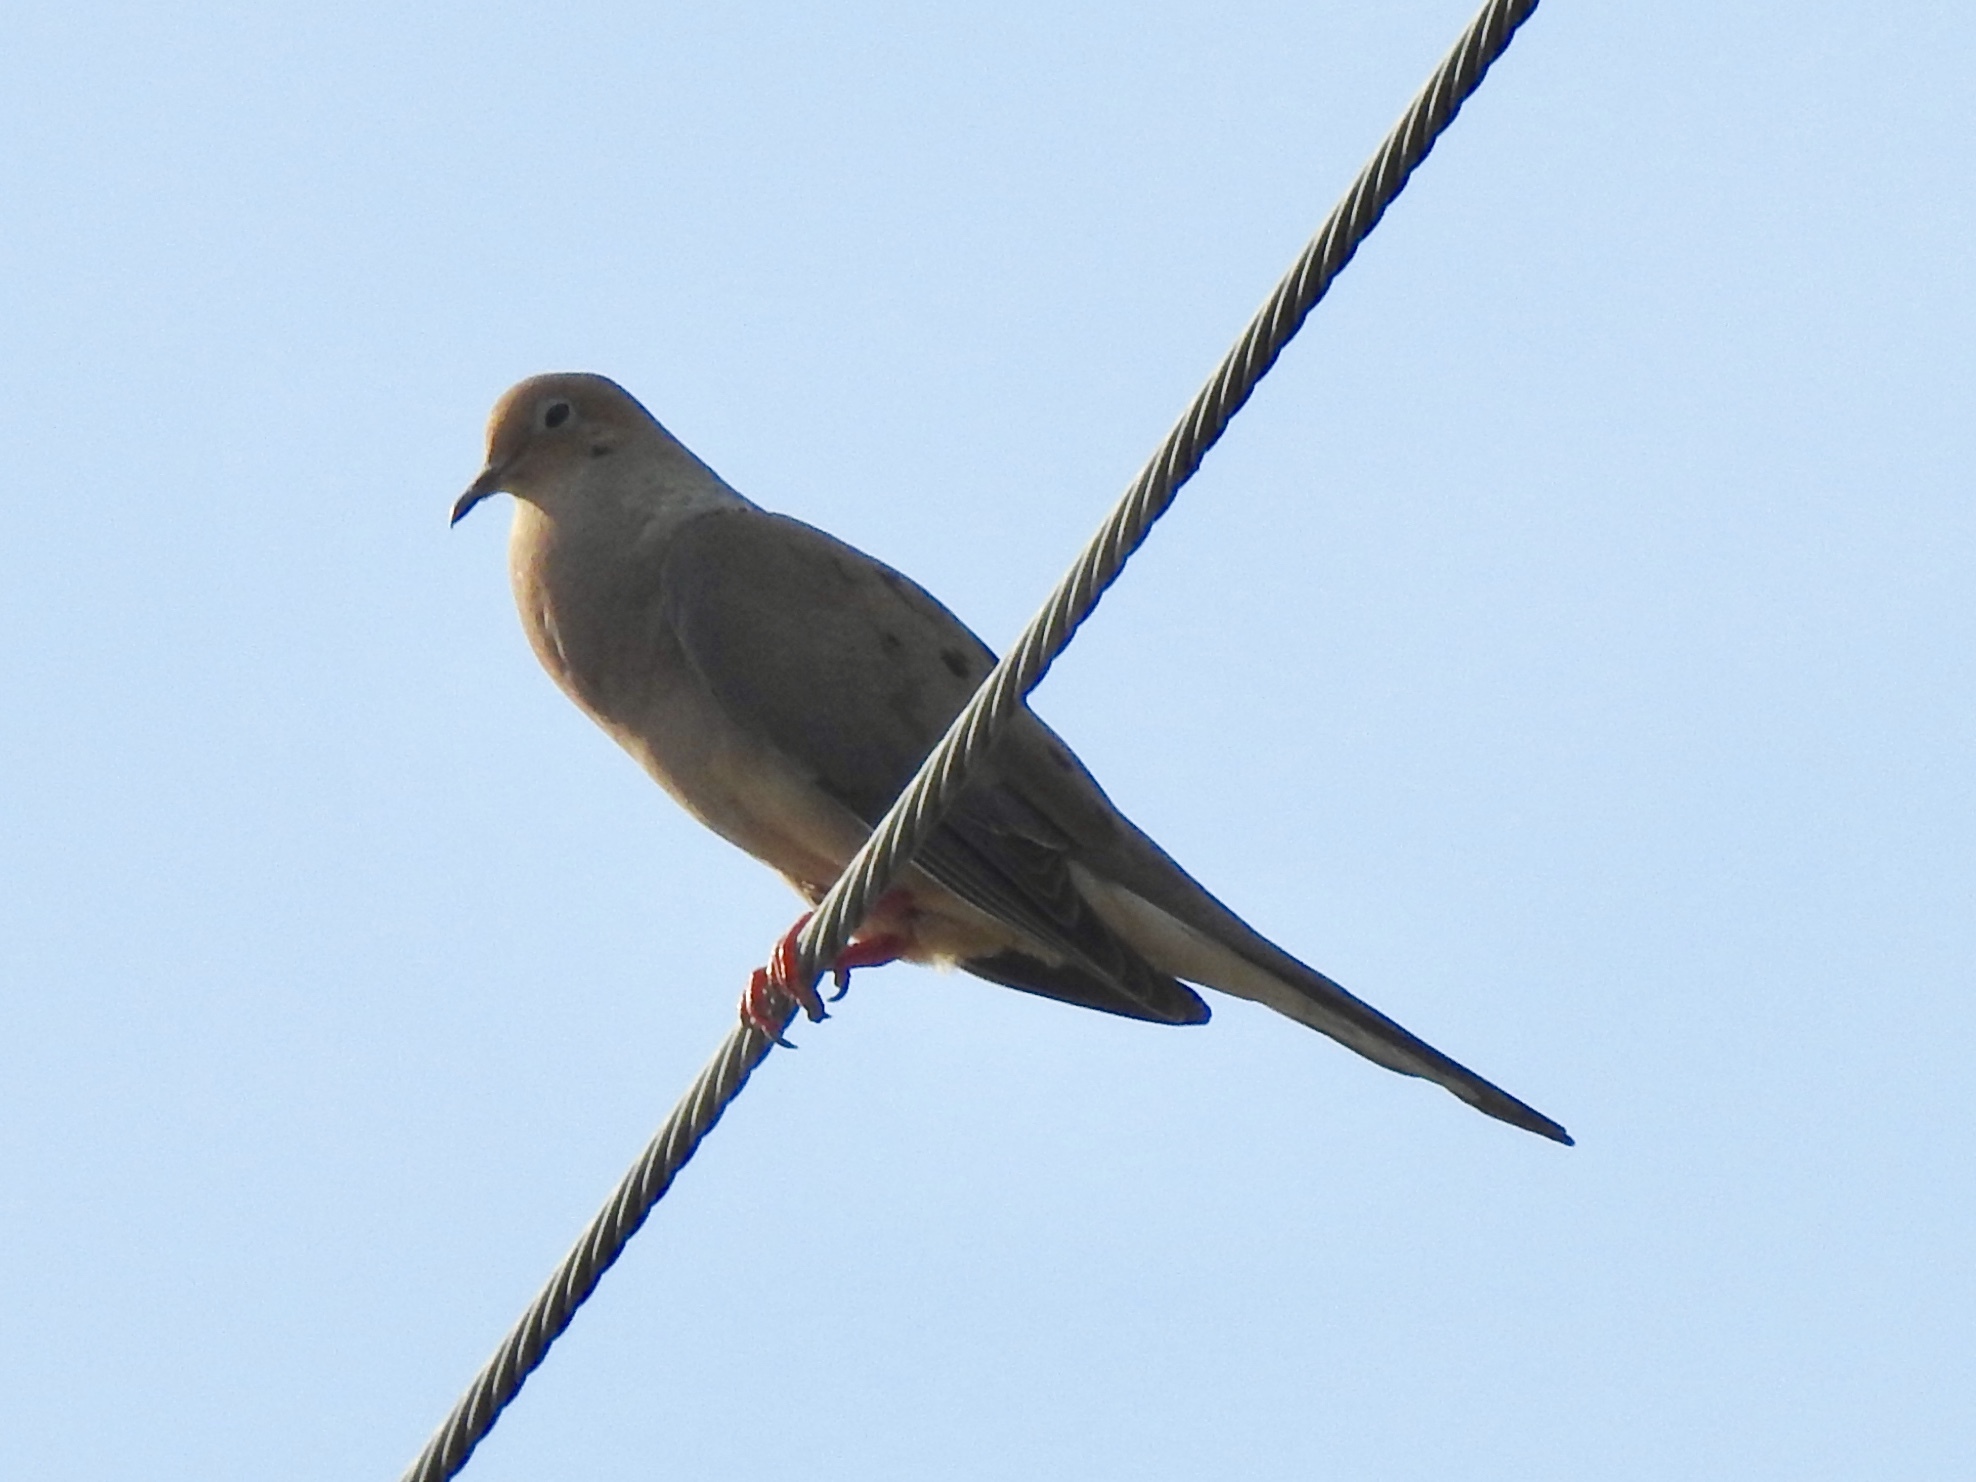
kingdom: Animalia
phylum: Chordata
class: Aves
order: Columbiformes
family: Columbidae
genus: Zenaida
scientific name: Zenaida macroura
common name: Mourning dove
